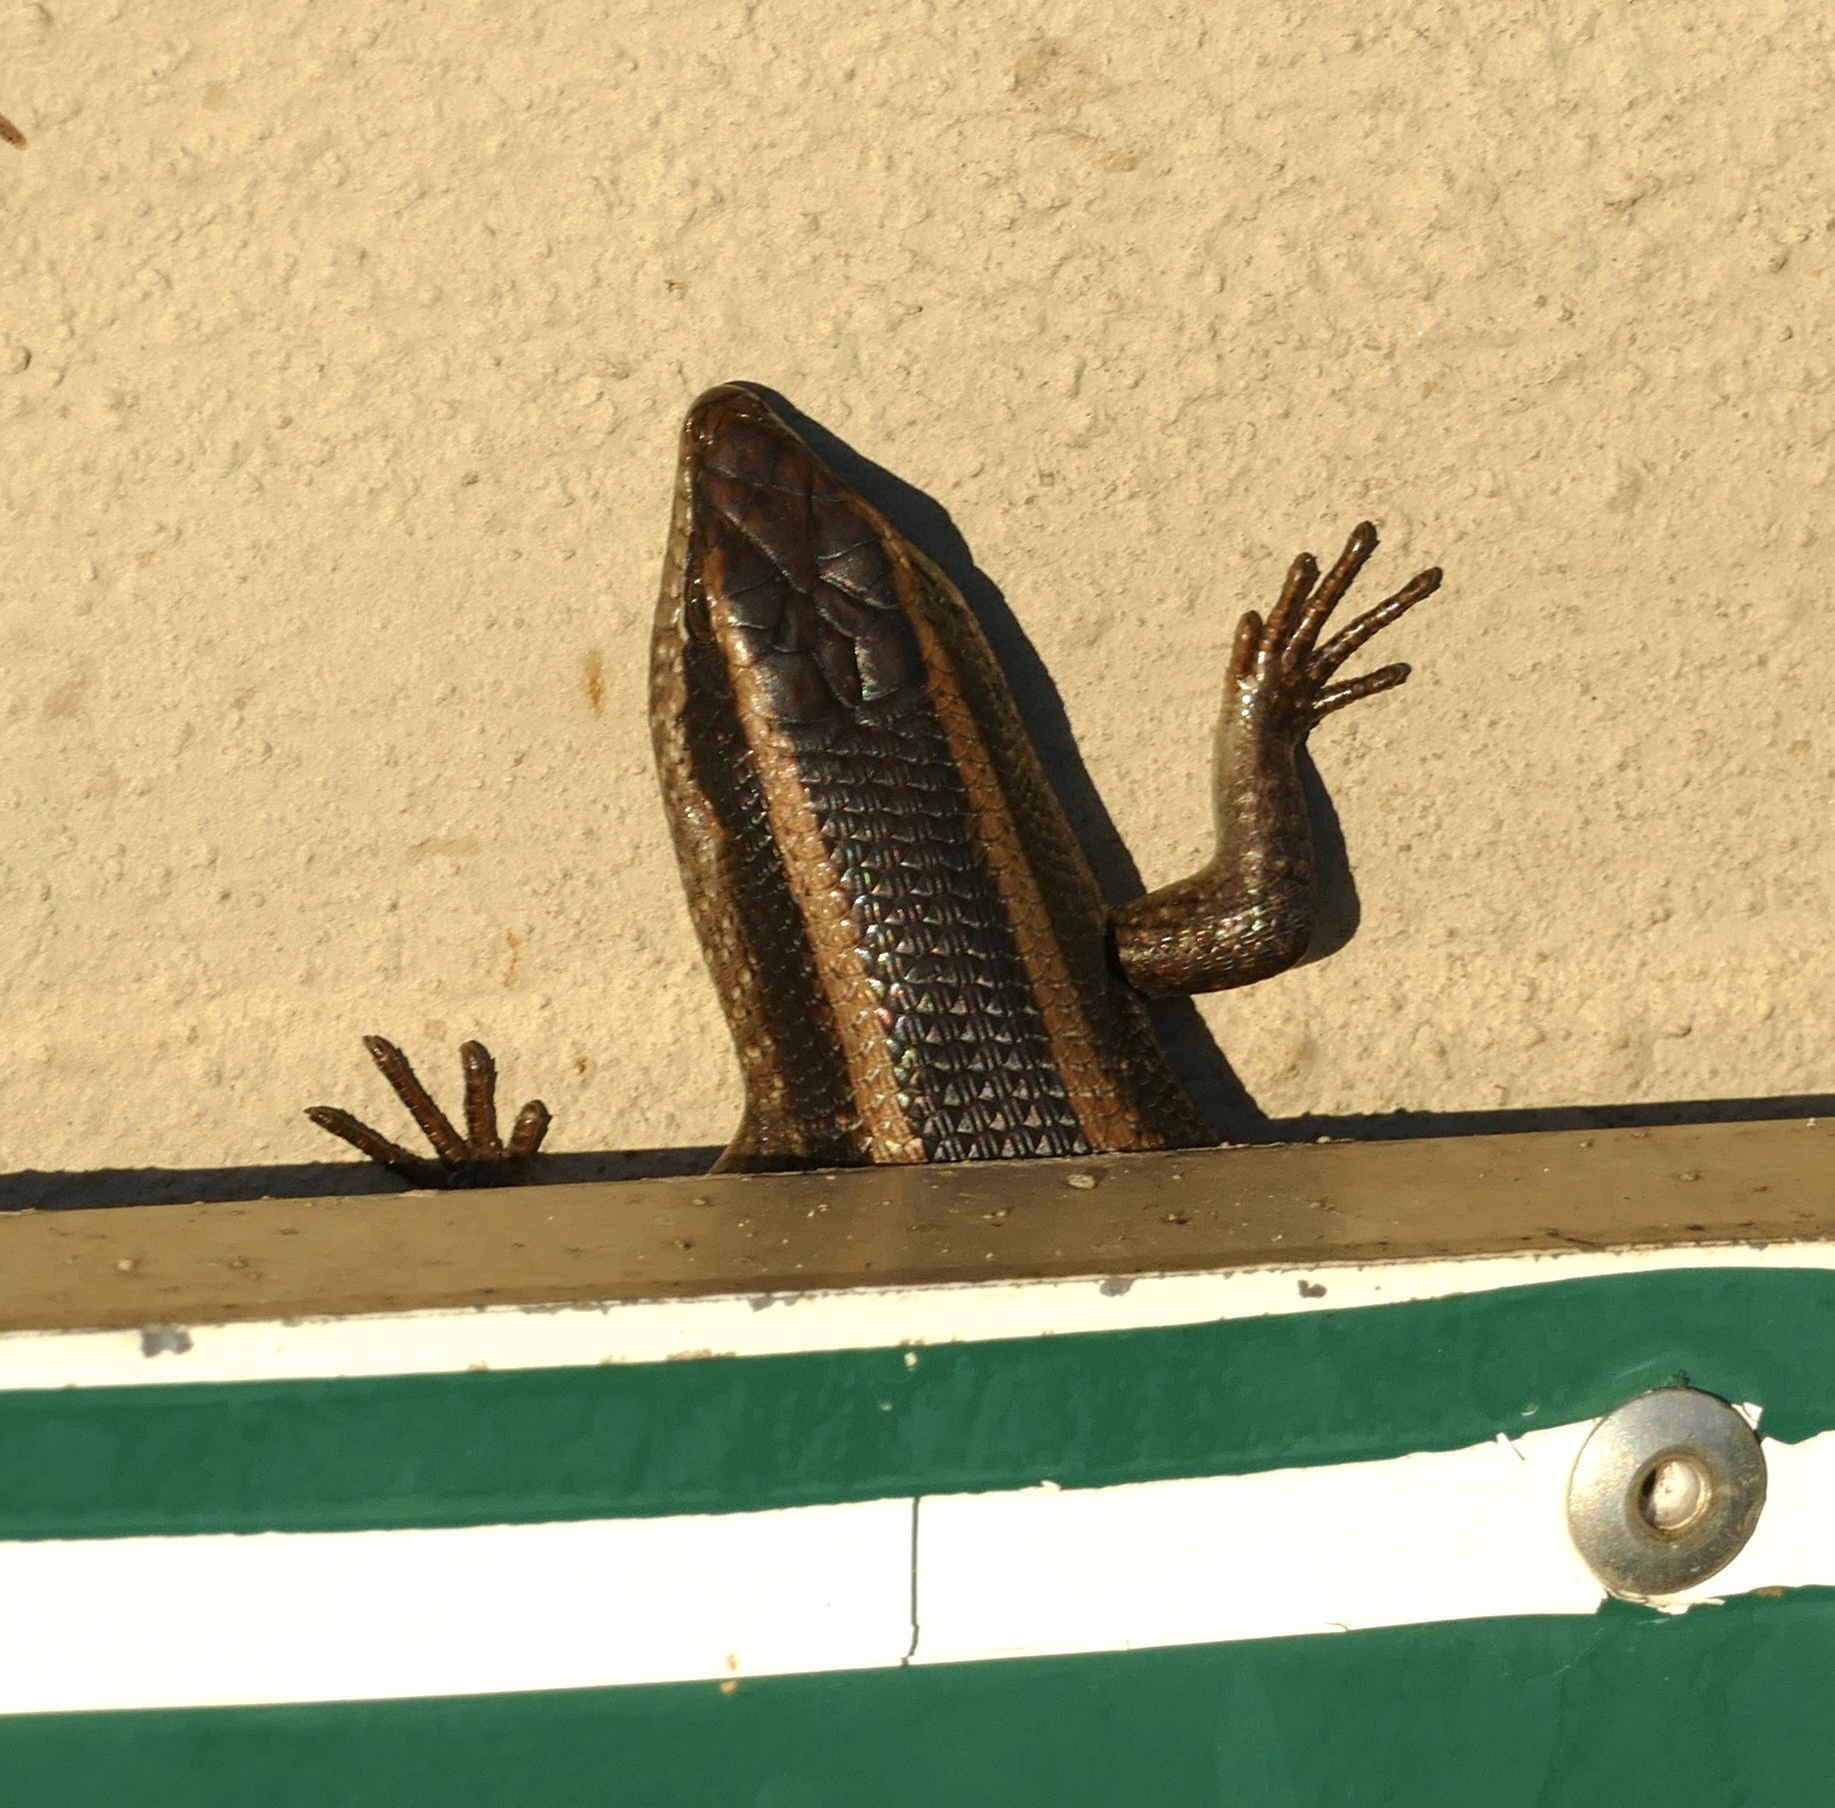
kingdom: Animalia
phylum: Chordata
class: Squamata
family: Scincidae
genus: Trachylepis
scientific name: Trachylepis striata
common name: African striped mabuya
